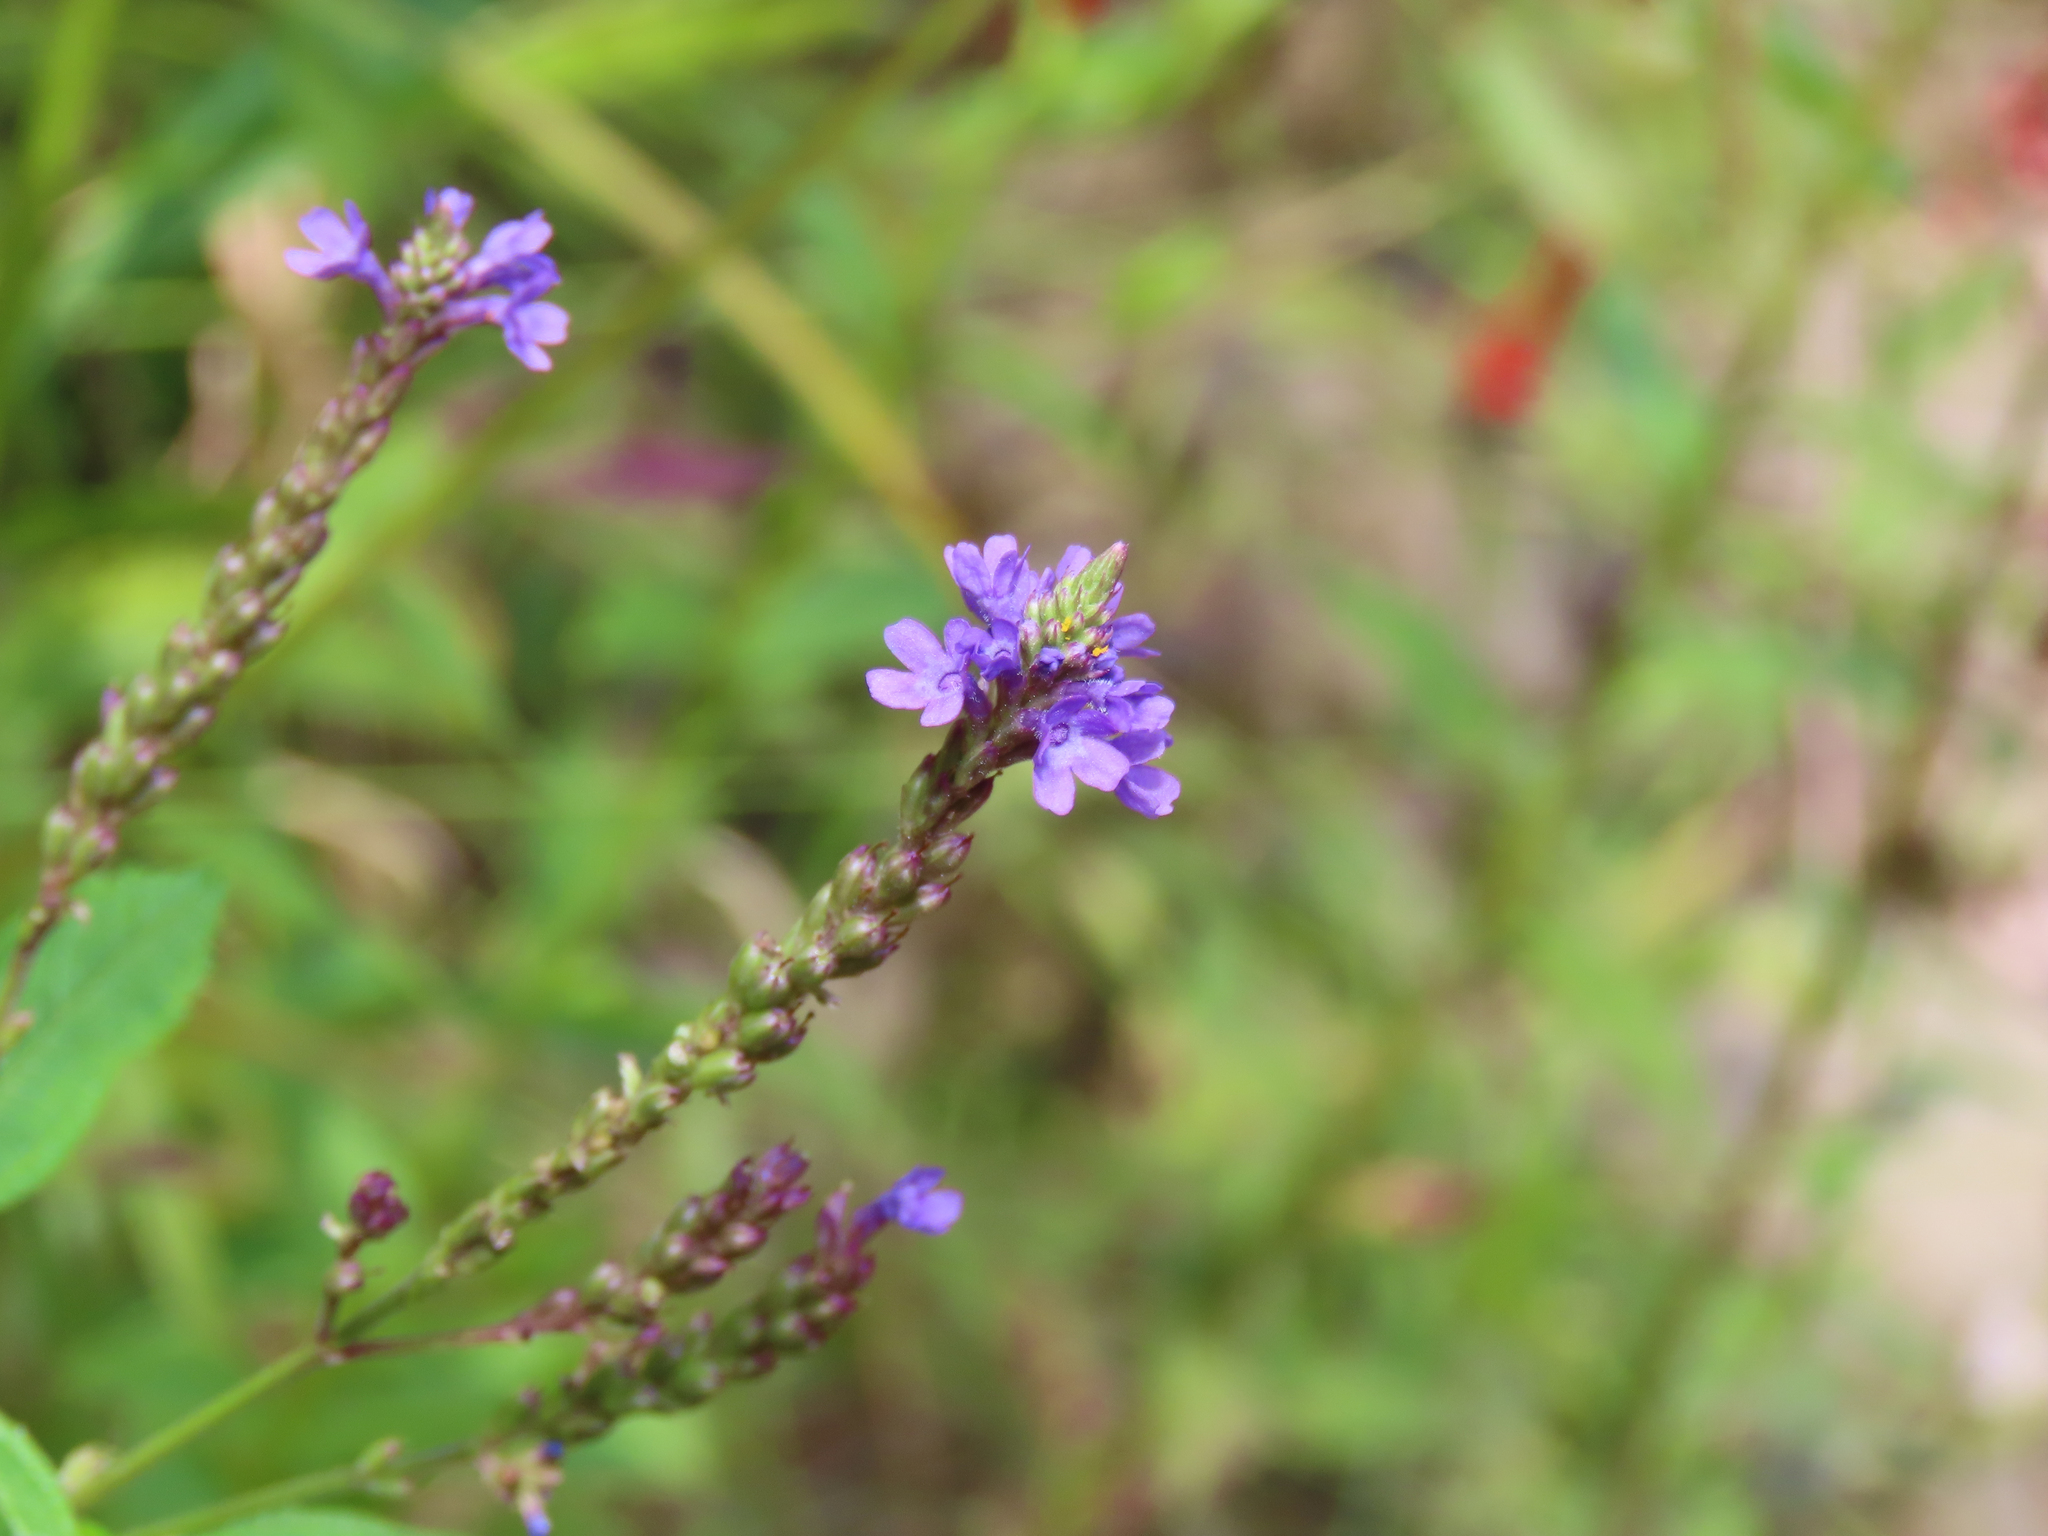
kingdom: Plantae
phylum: Tracheophyta
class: Magnoliopsida
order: Lamiales
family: Verbenaceae
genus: Verbena
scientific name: Verbena hastata
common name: American blue vervain
